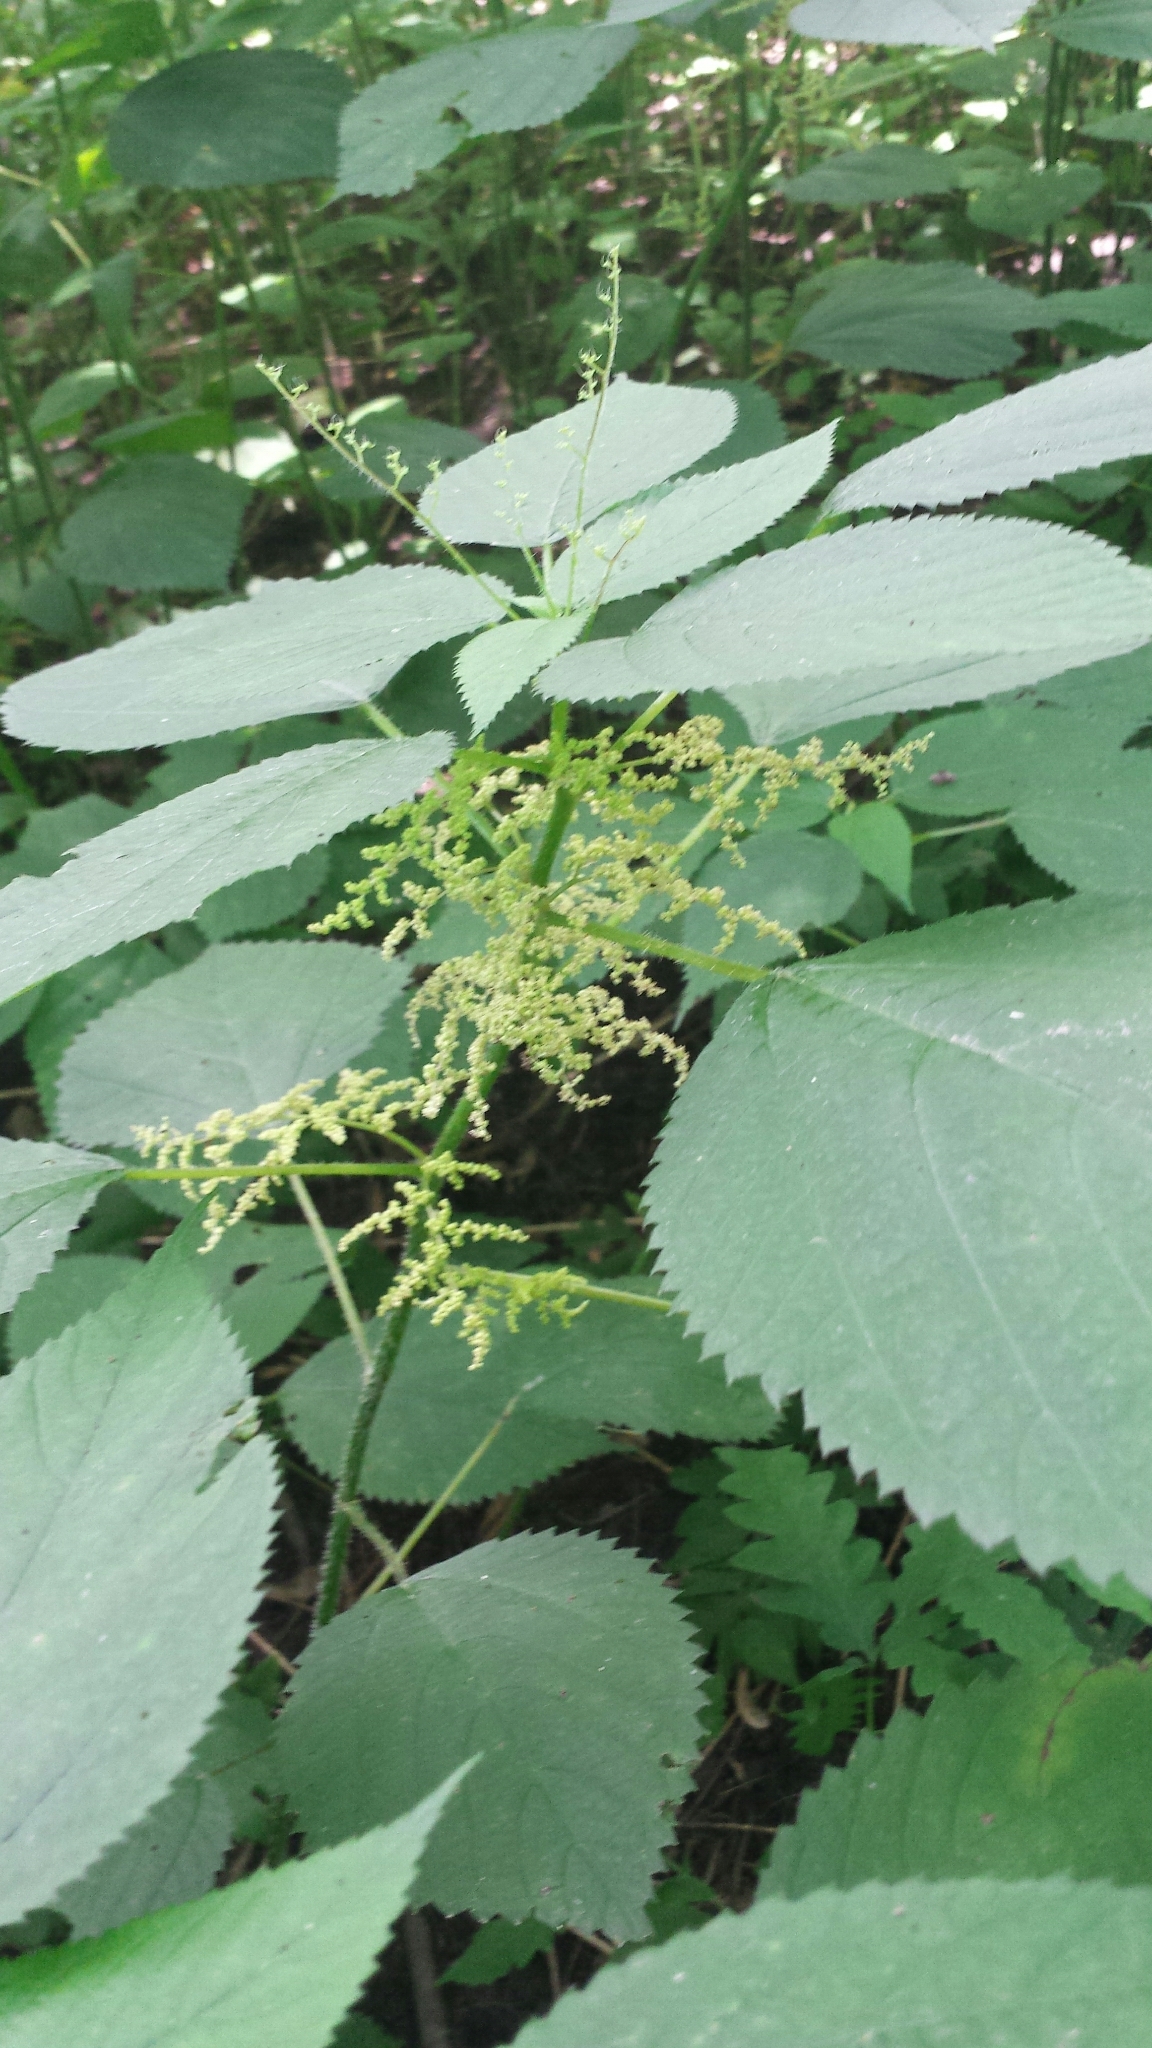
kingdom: Plantae
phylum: Tracheophyta
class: Magnoliopsida
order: Rosales
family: Urticaceae
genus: Laportea
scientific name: Laportea canadensis
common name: Canada nettle
